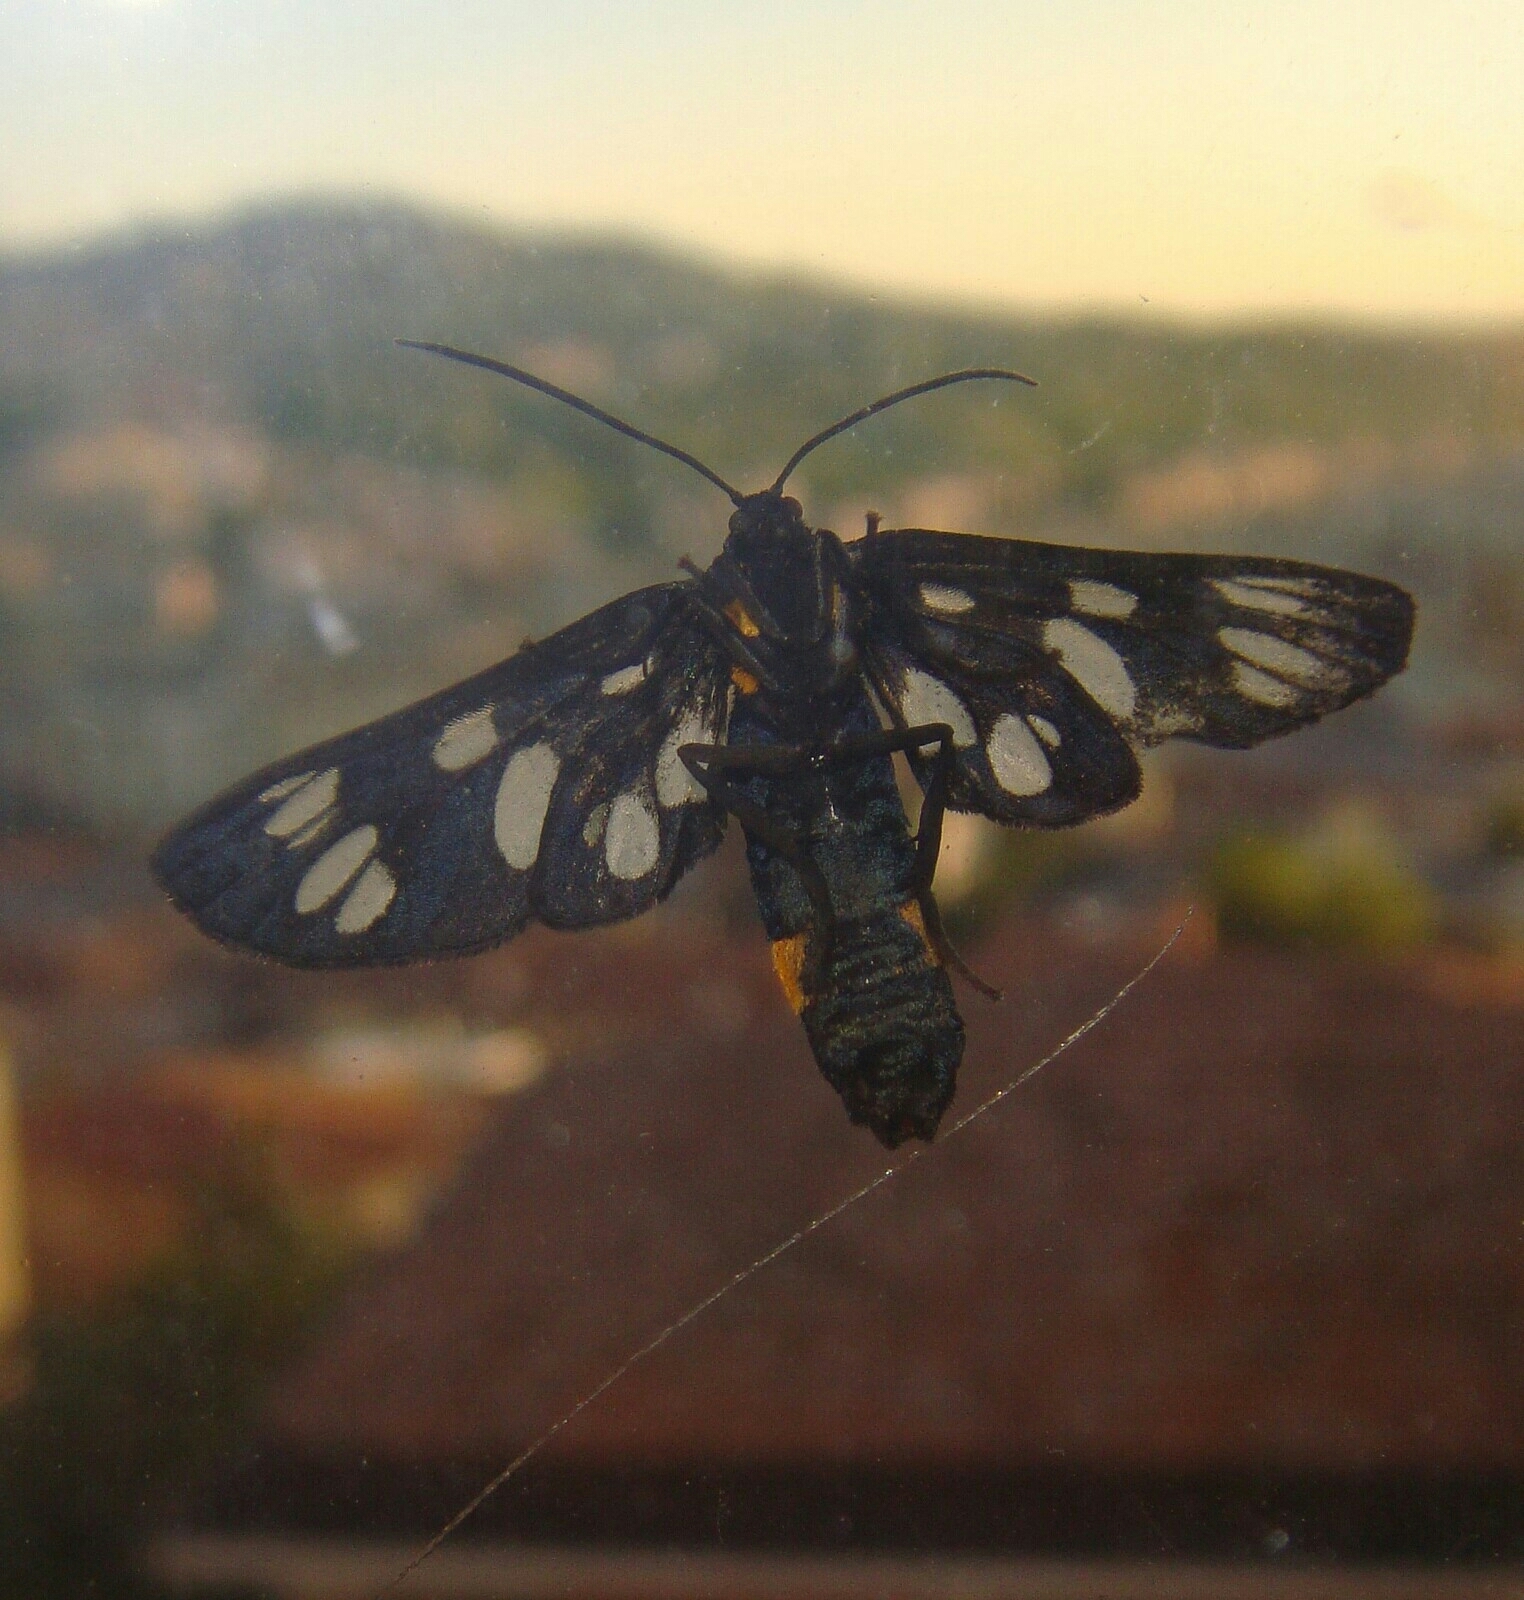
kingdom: Animalia
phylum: Arthropoda
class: Insecta
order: Lepidoptera
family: Erebidae
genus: Amata
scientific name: Amata phegea
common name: Nine-spotted
